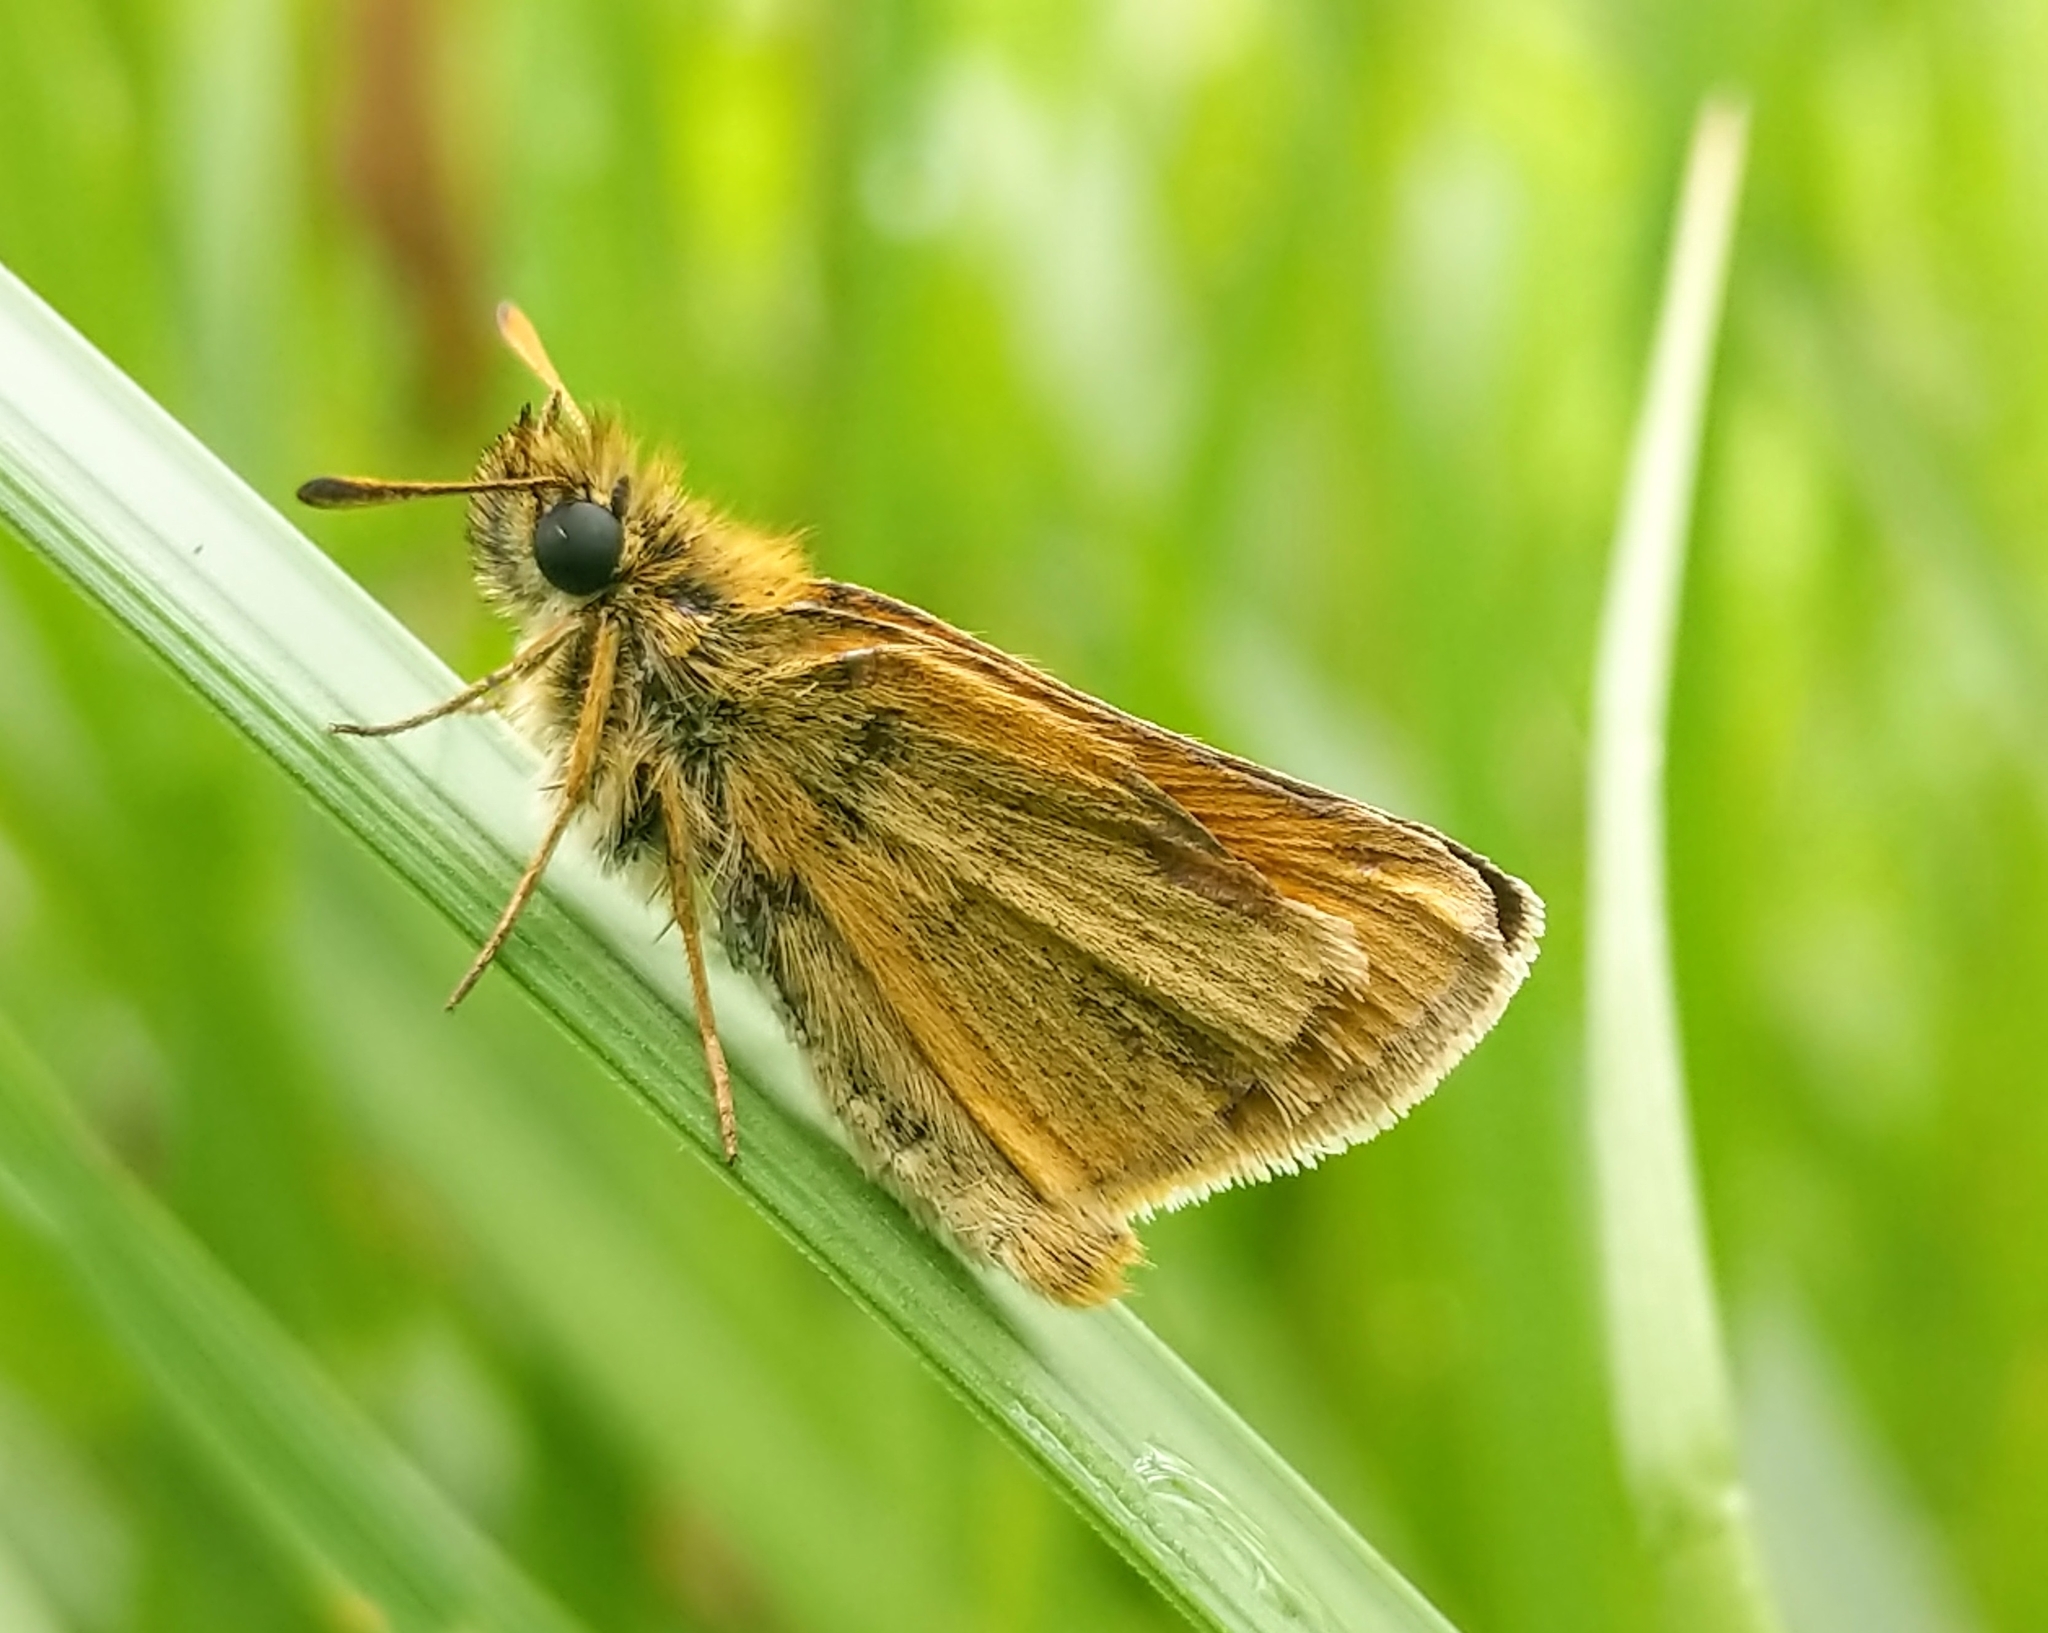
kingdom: Animalia
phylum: Arthropoda
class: Insecta
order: Lepidoptera
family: Hesperiidae
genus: Thymelicus
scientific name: Thymelicus lineola
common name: Essex skipper
